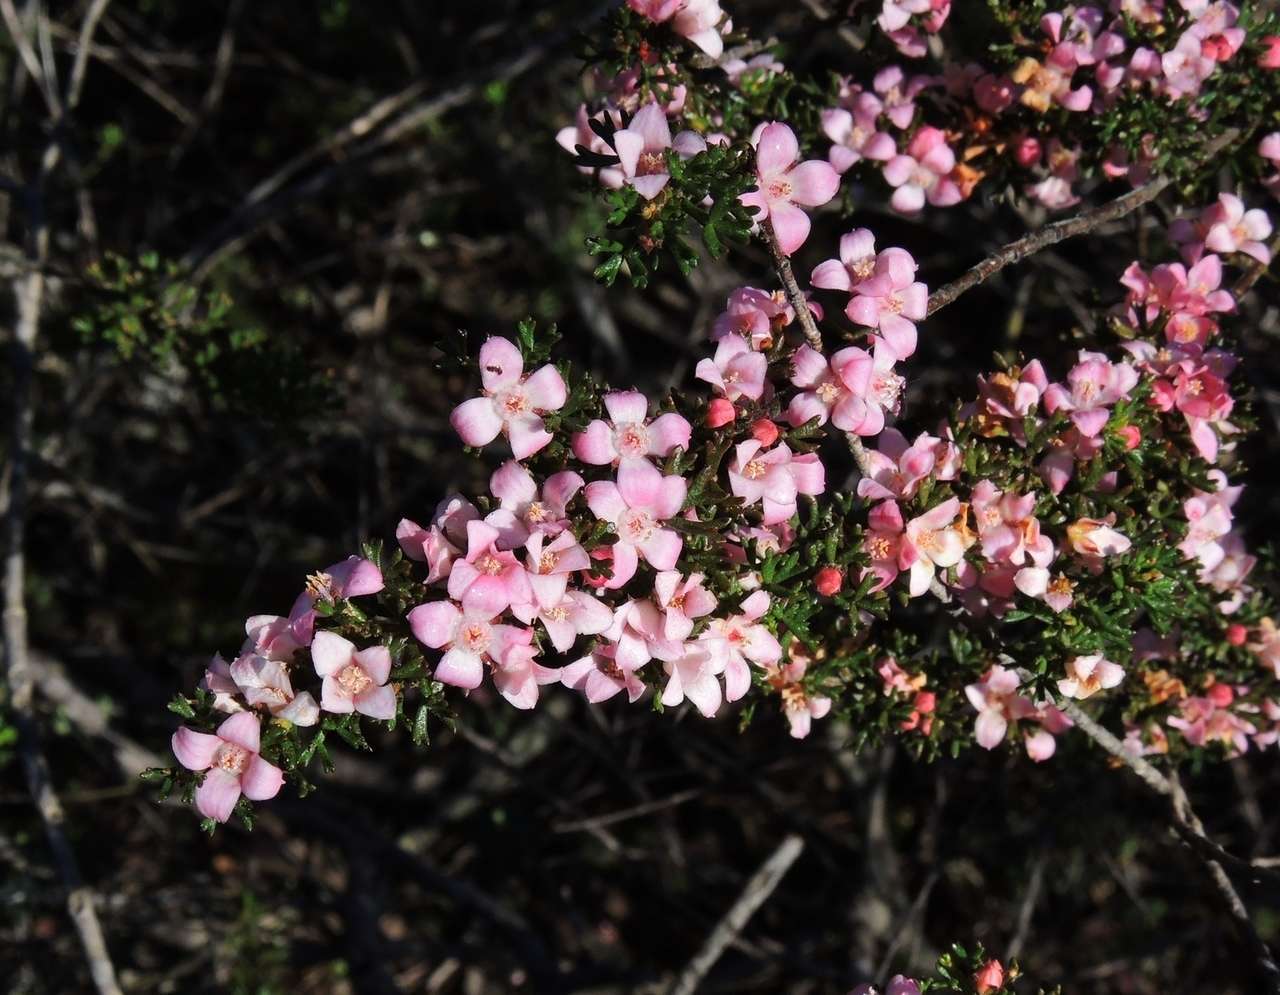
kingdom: Plantae
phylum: Tracheophyta
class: Magnoliopsida
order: Sapindales
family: Rutaceae
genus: Cyanothamnus
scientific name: Cyanothamnus anemonifolius
